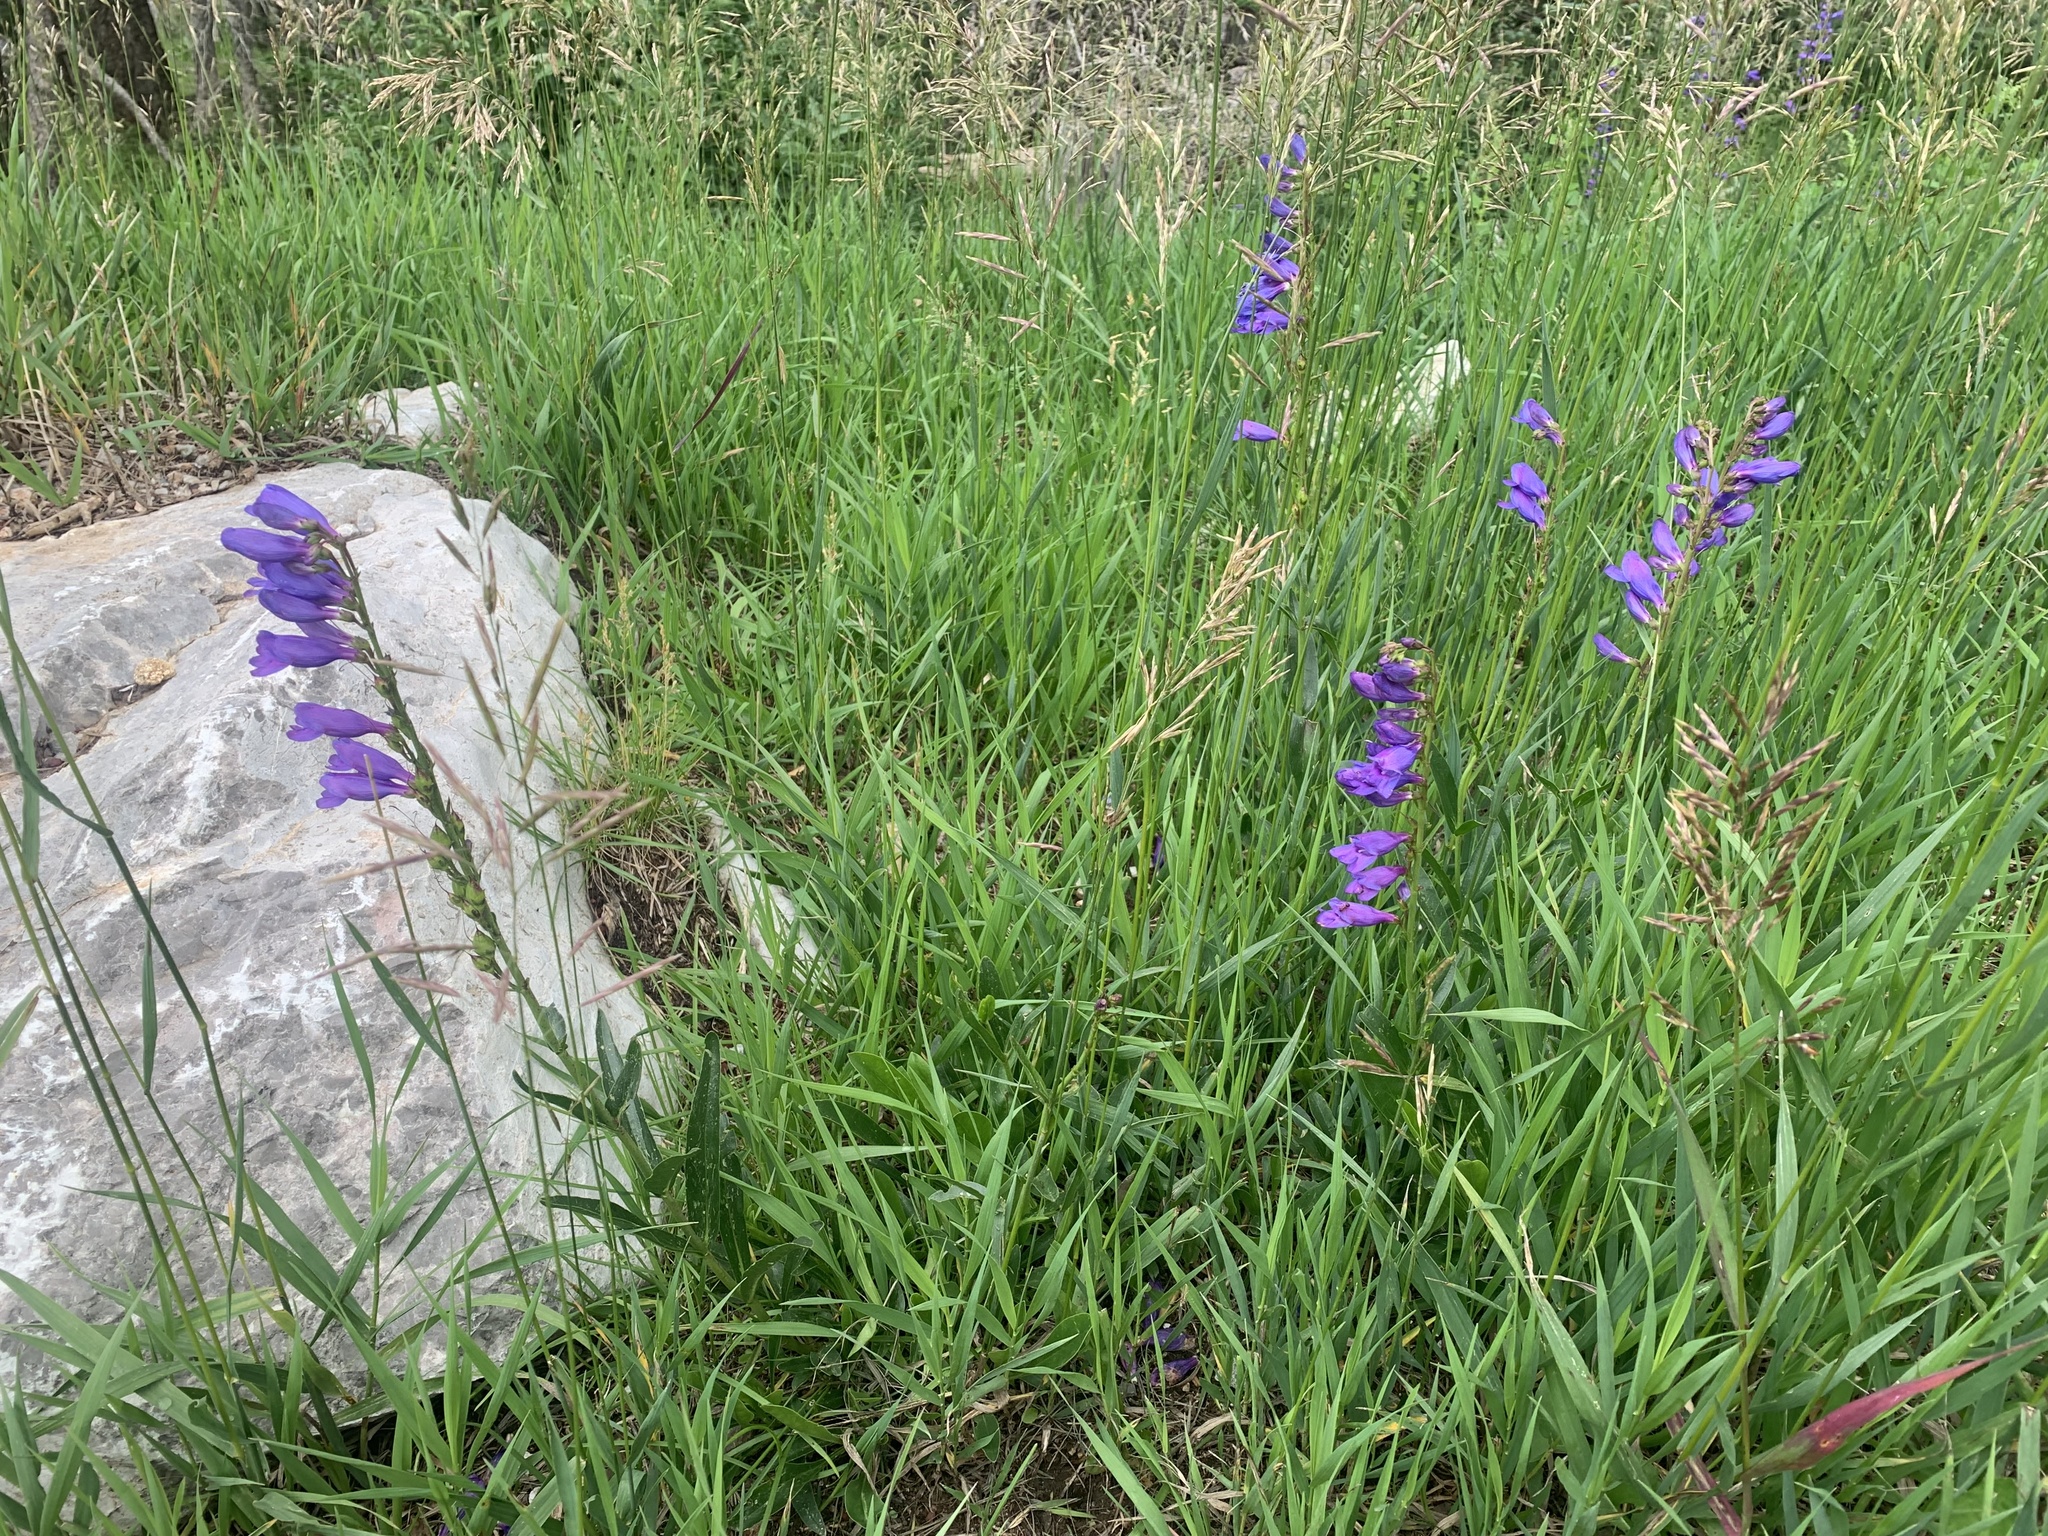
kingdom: Plantae
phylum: Tracheophyta
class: Magnoliopsida
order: Lamiales
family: Plantaginaceae
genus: Penstemon
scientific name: Penstemon strictus
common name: Rocky mountain penstemon
